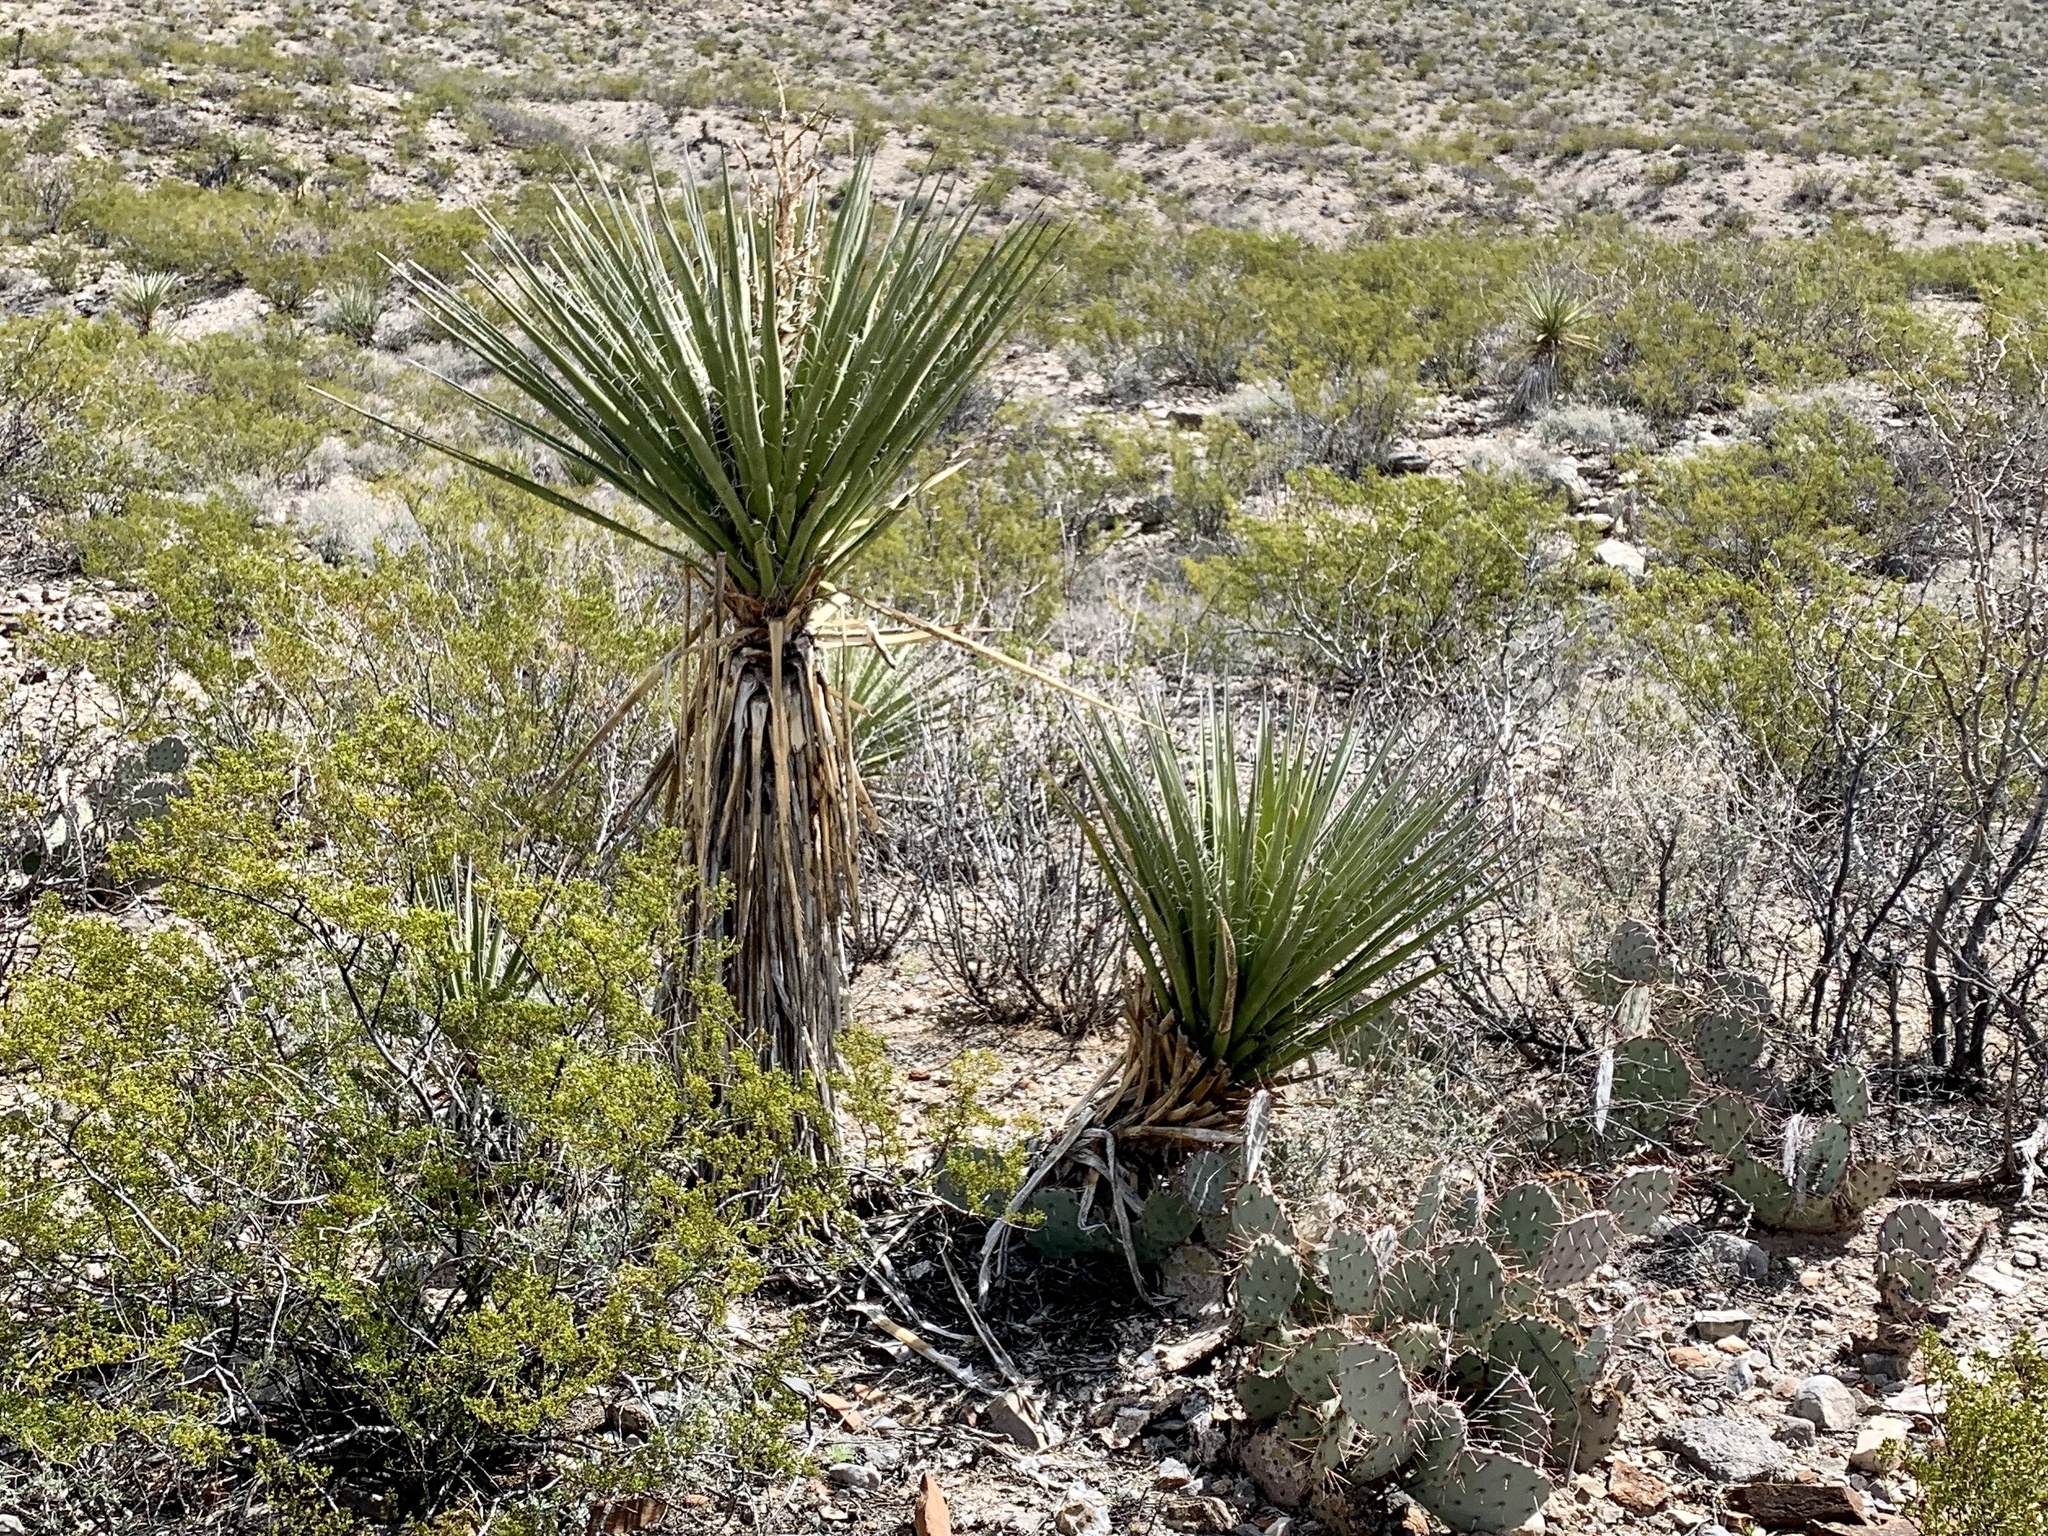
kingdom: Plantae
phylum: Tracheophyta
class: Liliopsida
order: Asparagales
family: Asparagaceae
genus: Yucca
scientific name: Yucca treculiana
